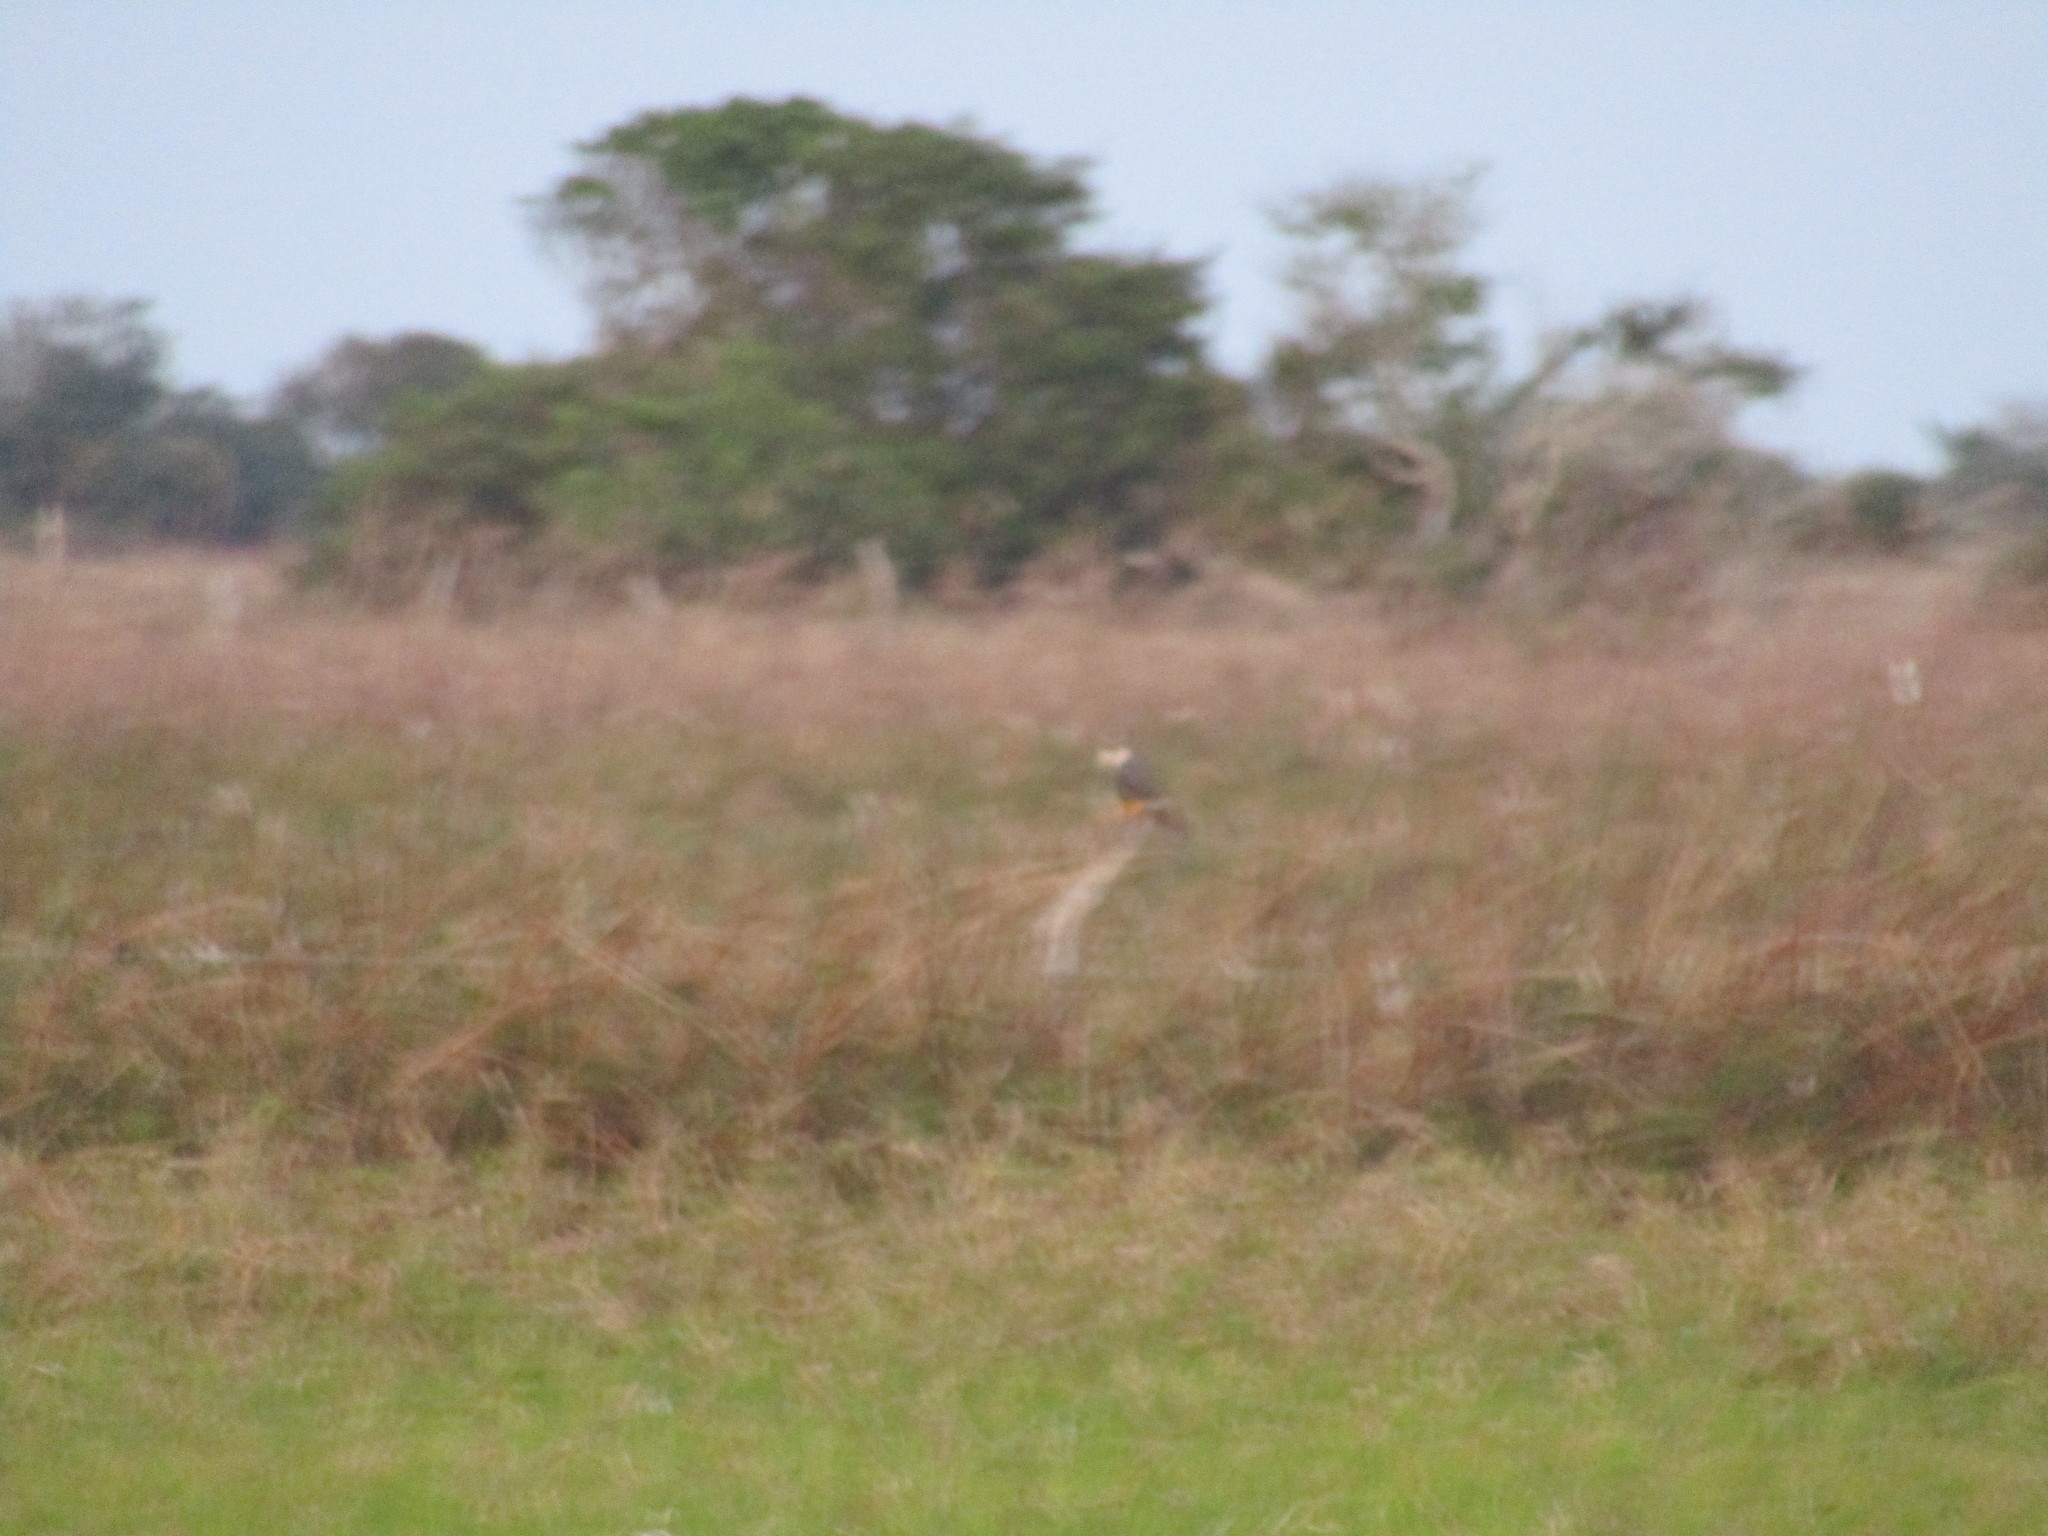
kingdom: Animalia
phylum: Chordata
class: Aves
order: Falconiformes
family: Falconidae
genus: Falco
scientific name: Falco femoralis
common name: Aplomado falcon
